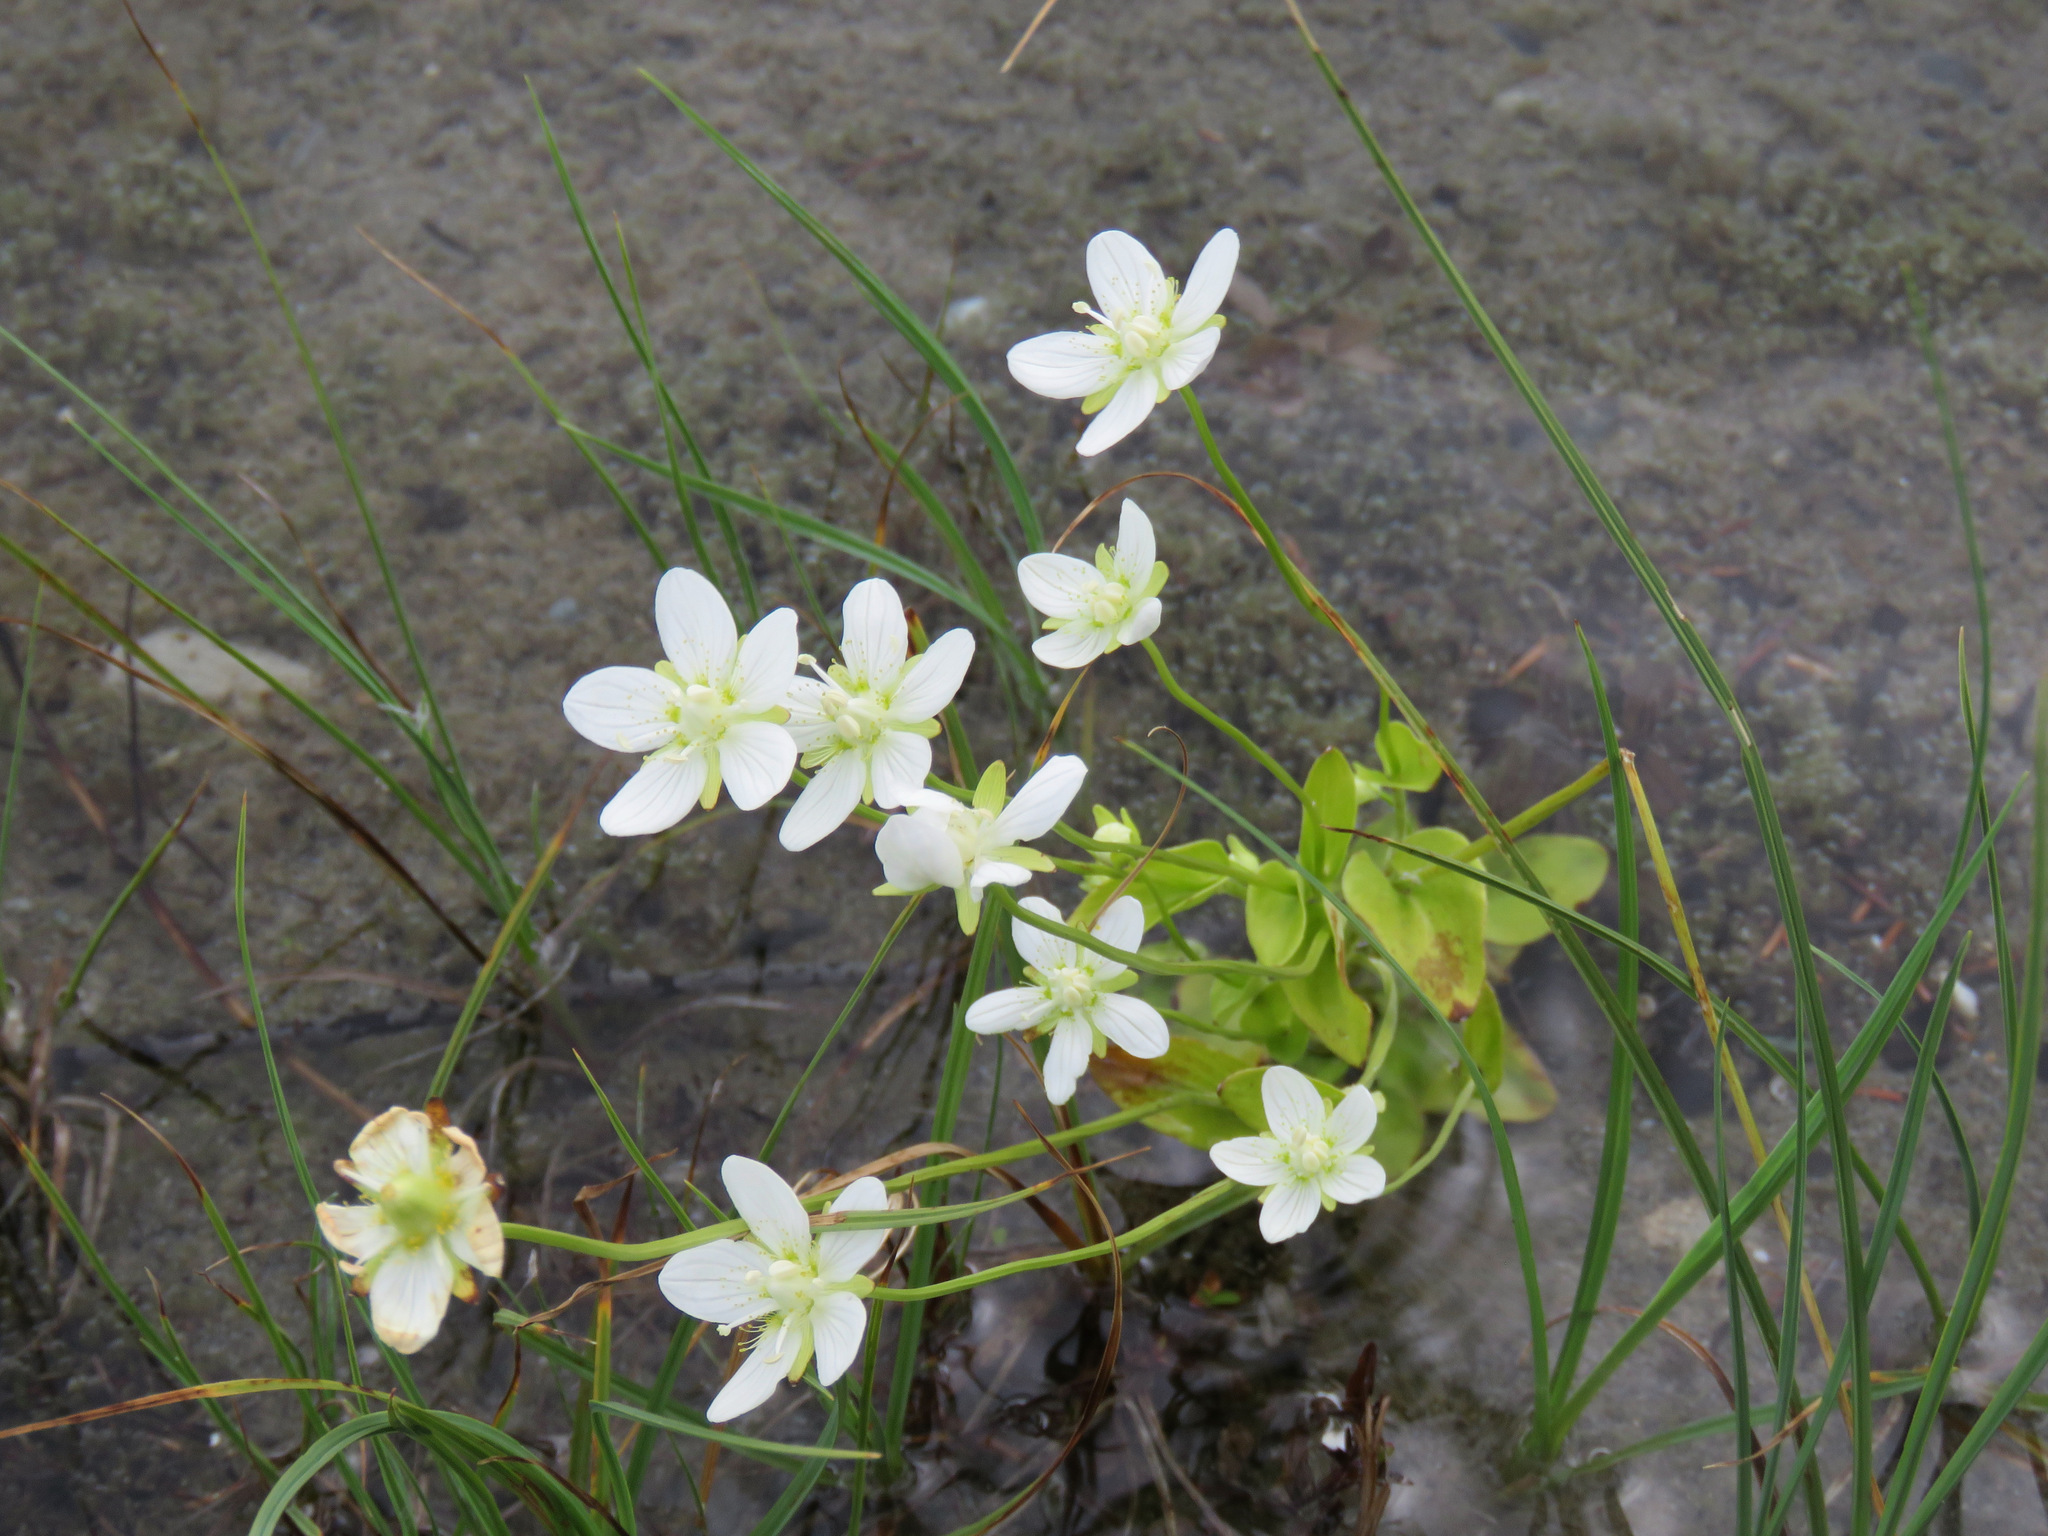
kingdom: Plantae
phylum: Tracheophyta
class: Magnoliopsida
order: Celastrales
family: Parnassiaceae
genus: Parnassia
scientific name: Parnassia palustris
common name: Grass-of-parnassus
